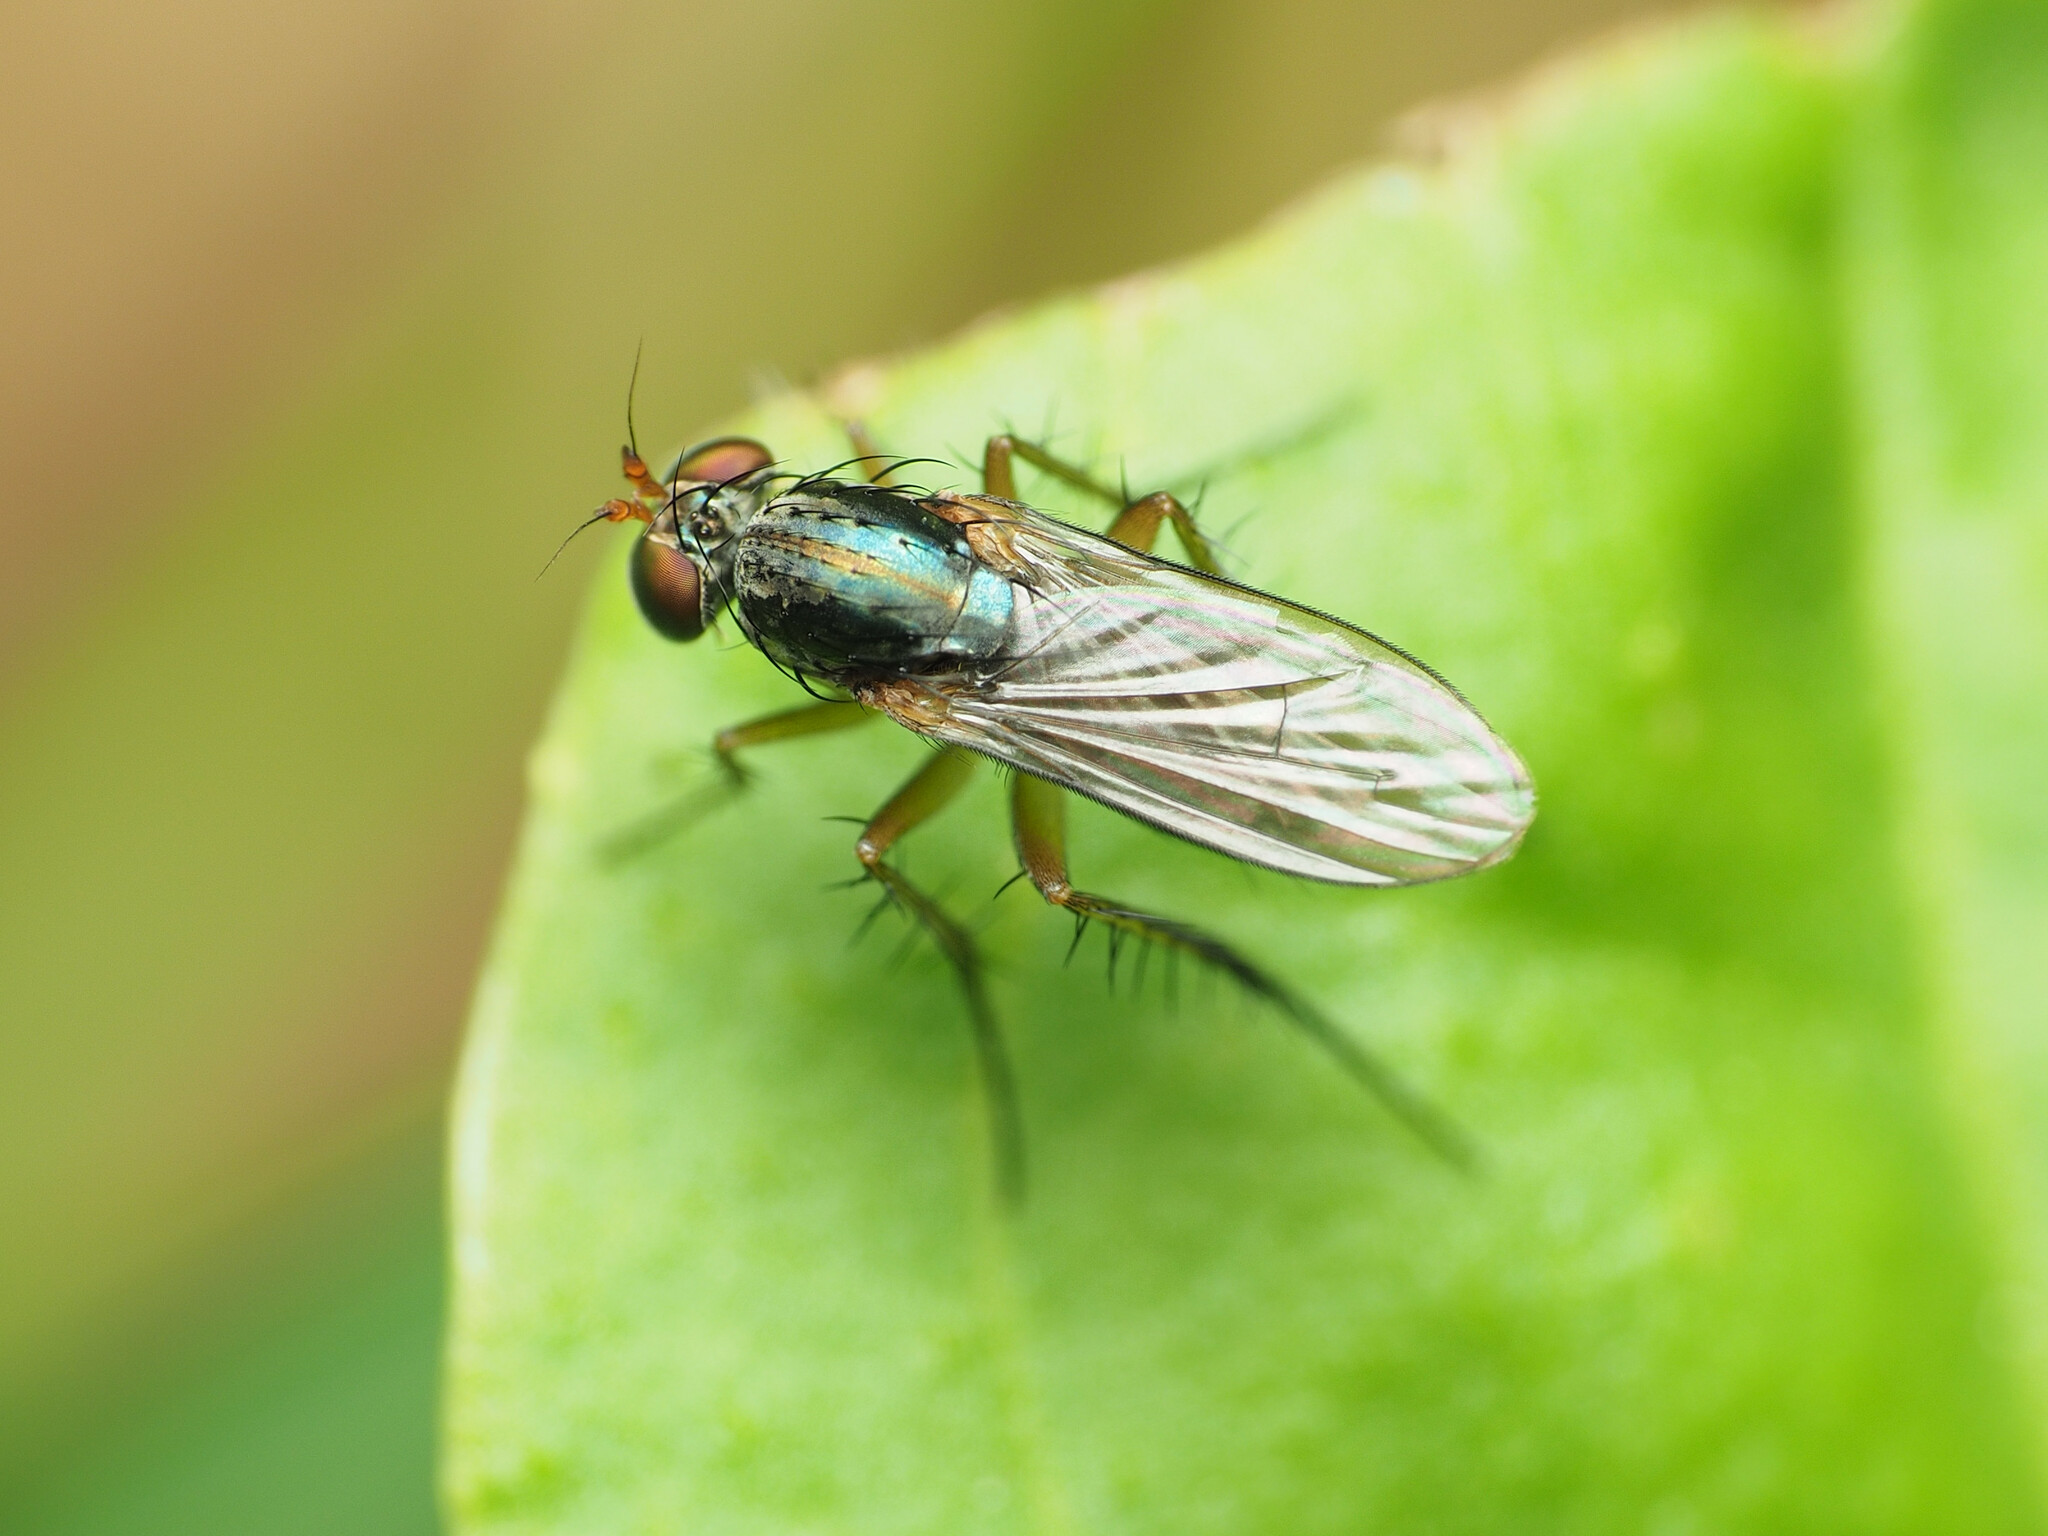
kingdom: Animalia
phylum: Arthropoda
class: Insecta
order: Diptera
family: Dolichopodidae
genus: Dolichopus
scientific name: Dolichopus reflectus
